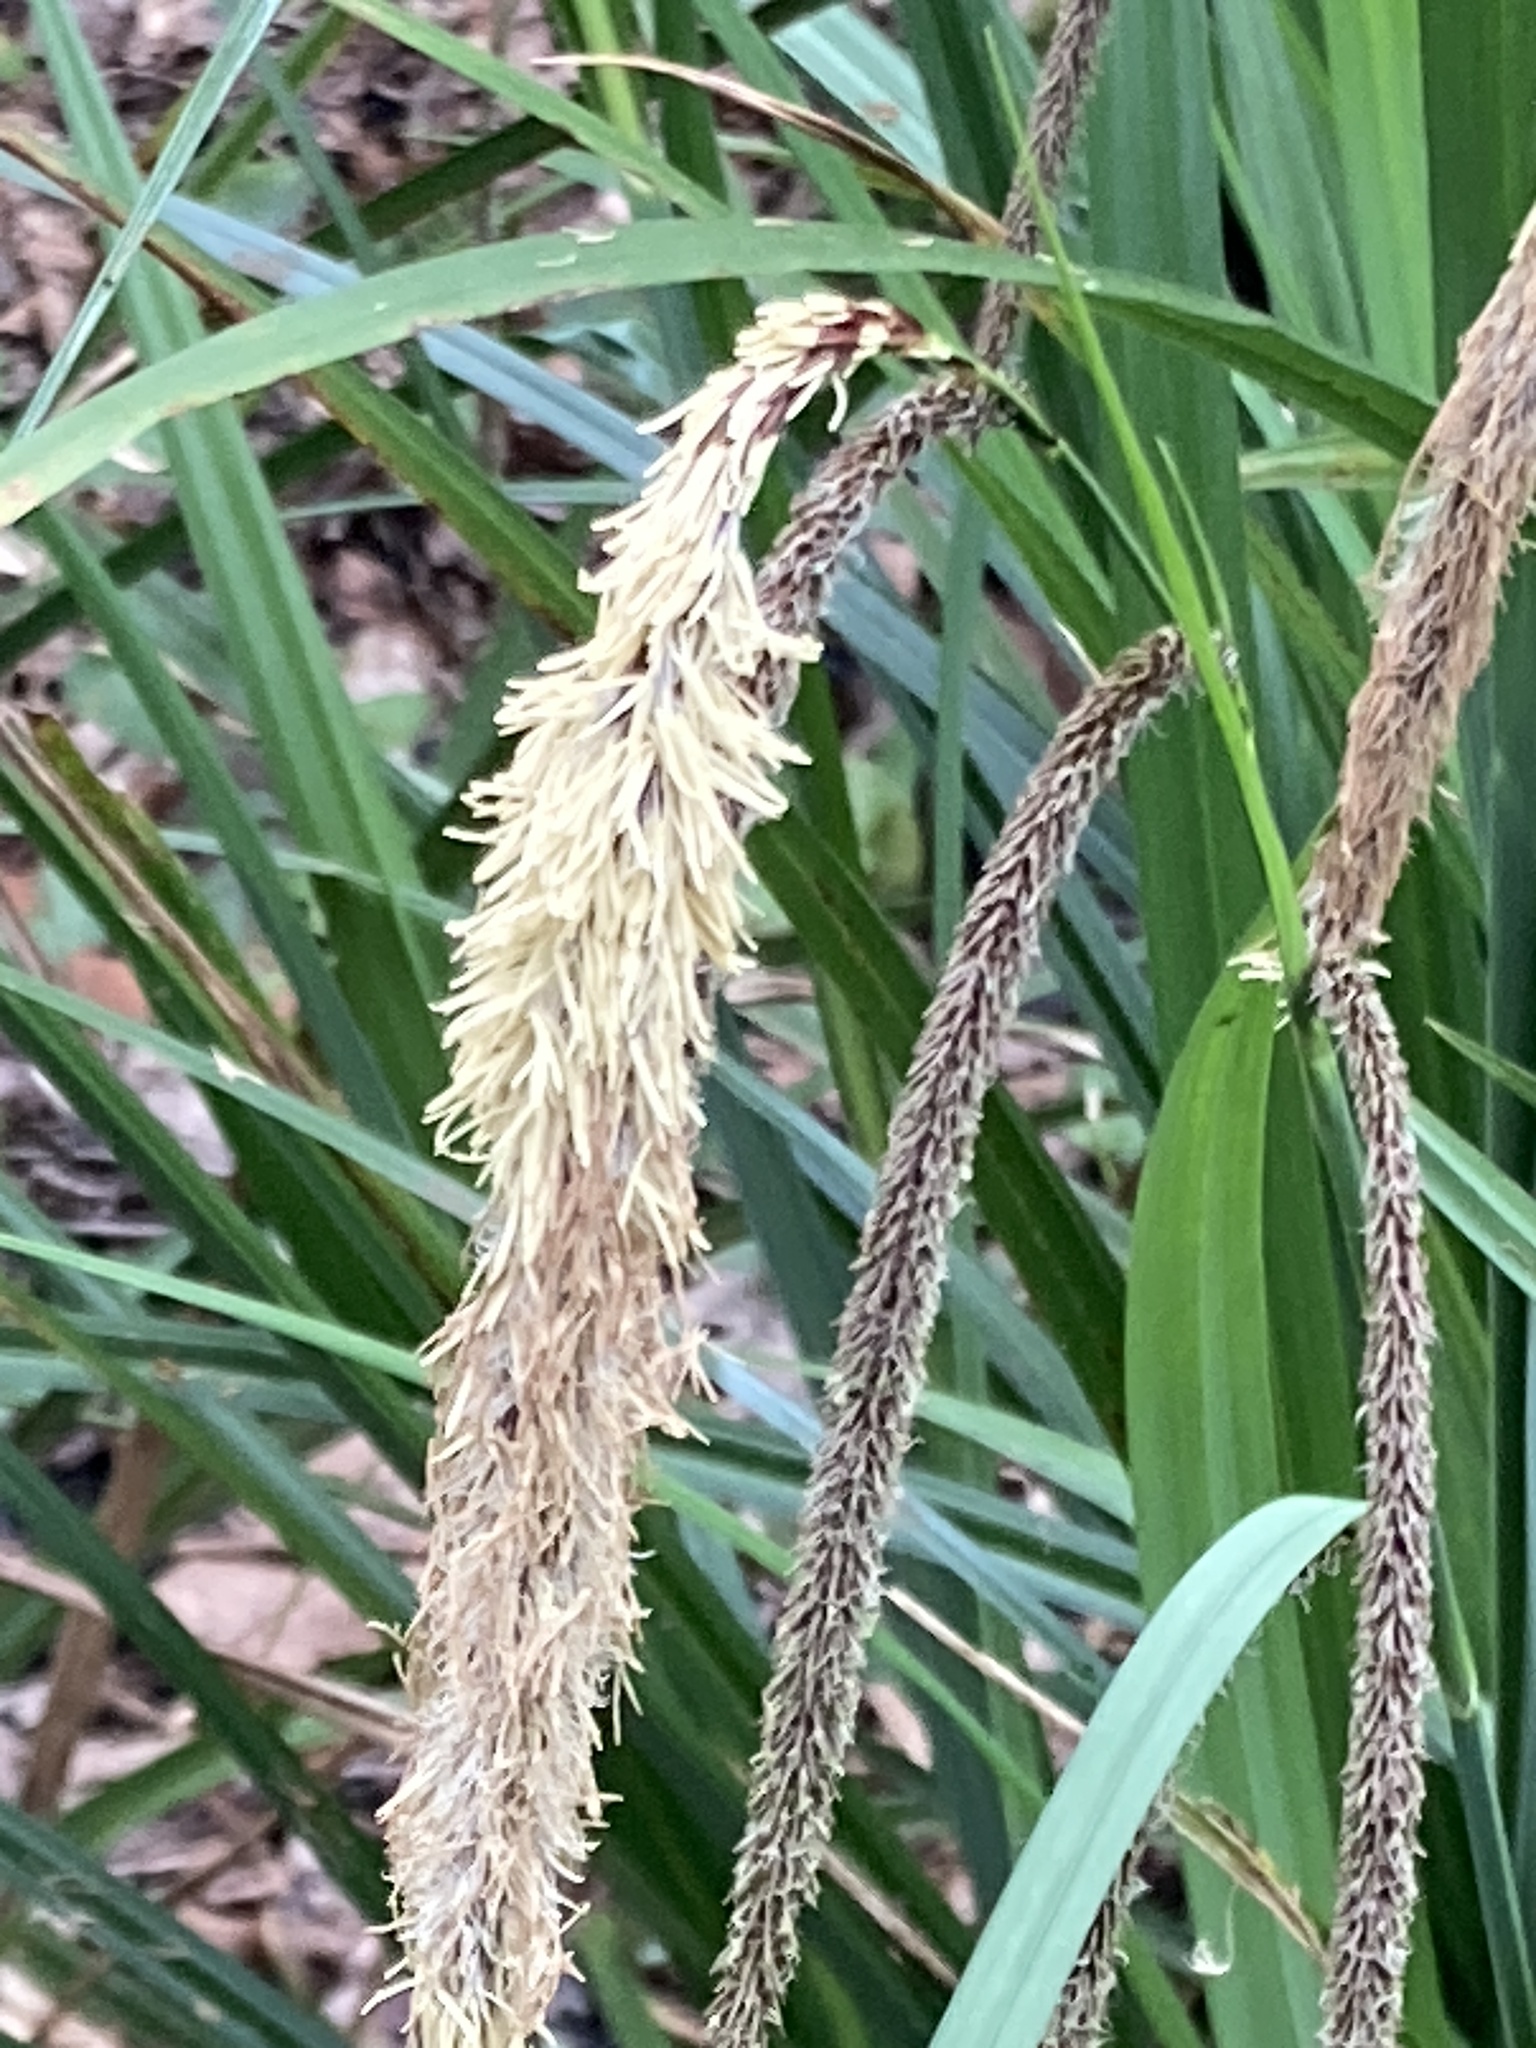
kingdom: Plantae
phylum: Tracheophyta
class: Liliopsida
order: Poales
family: Cyperaceae
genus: Carex
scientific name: Carex pendula
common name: Pendulous sedge
